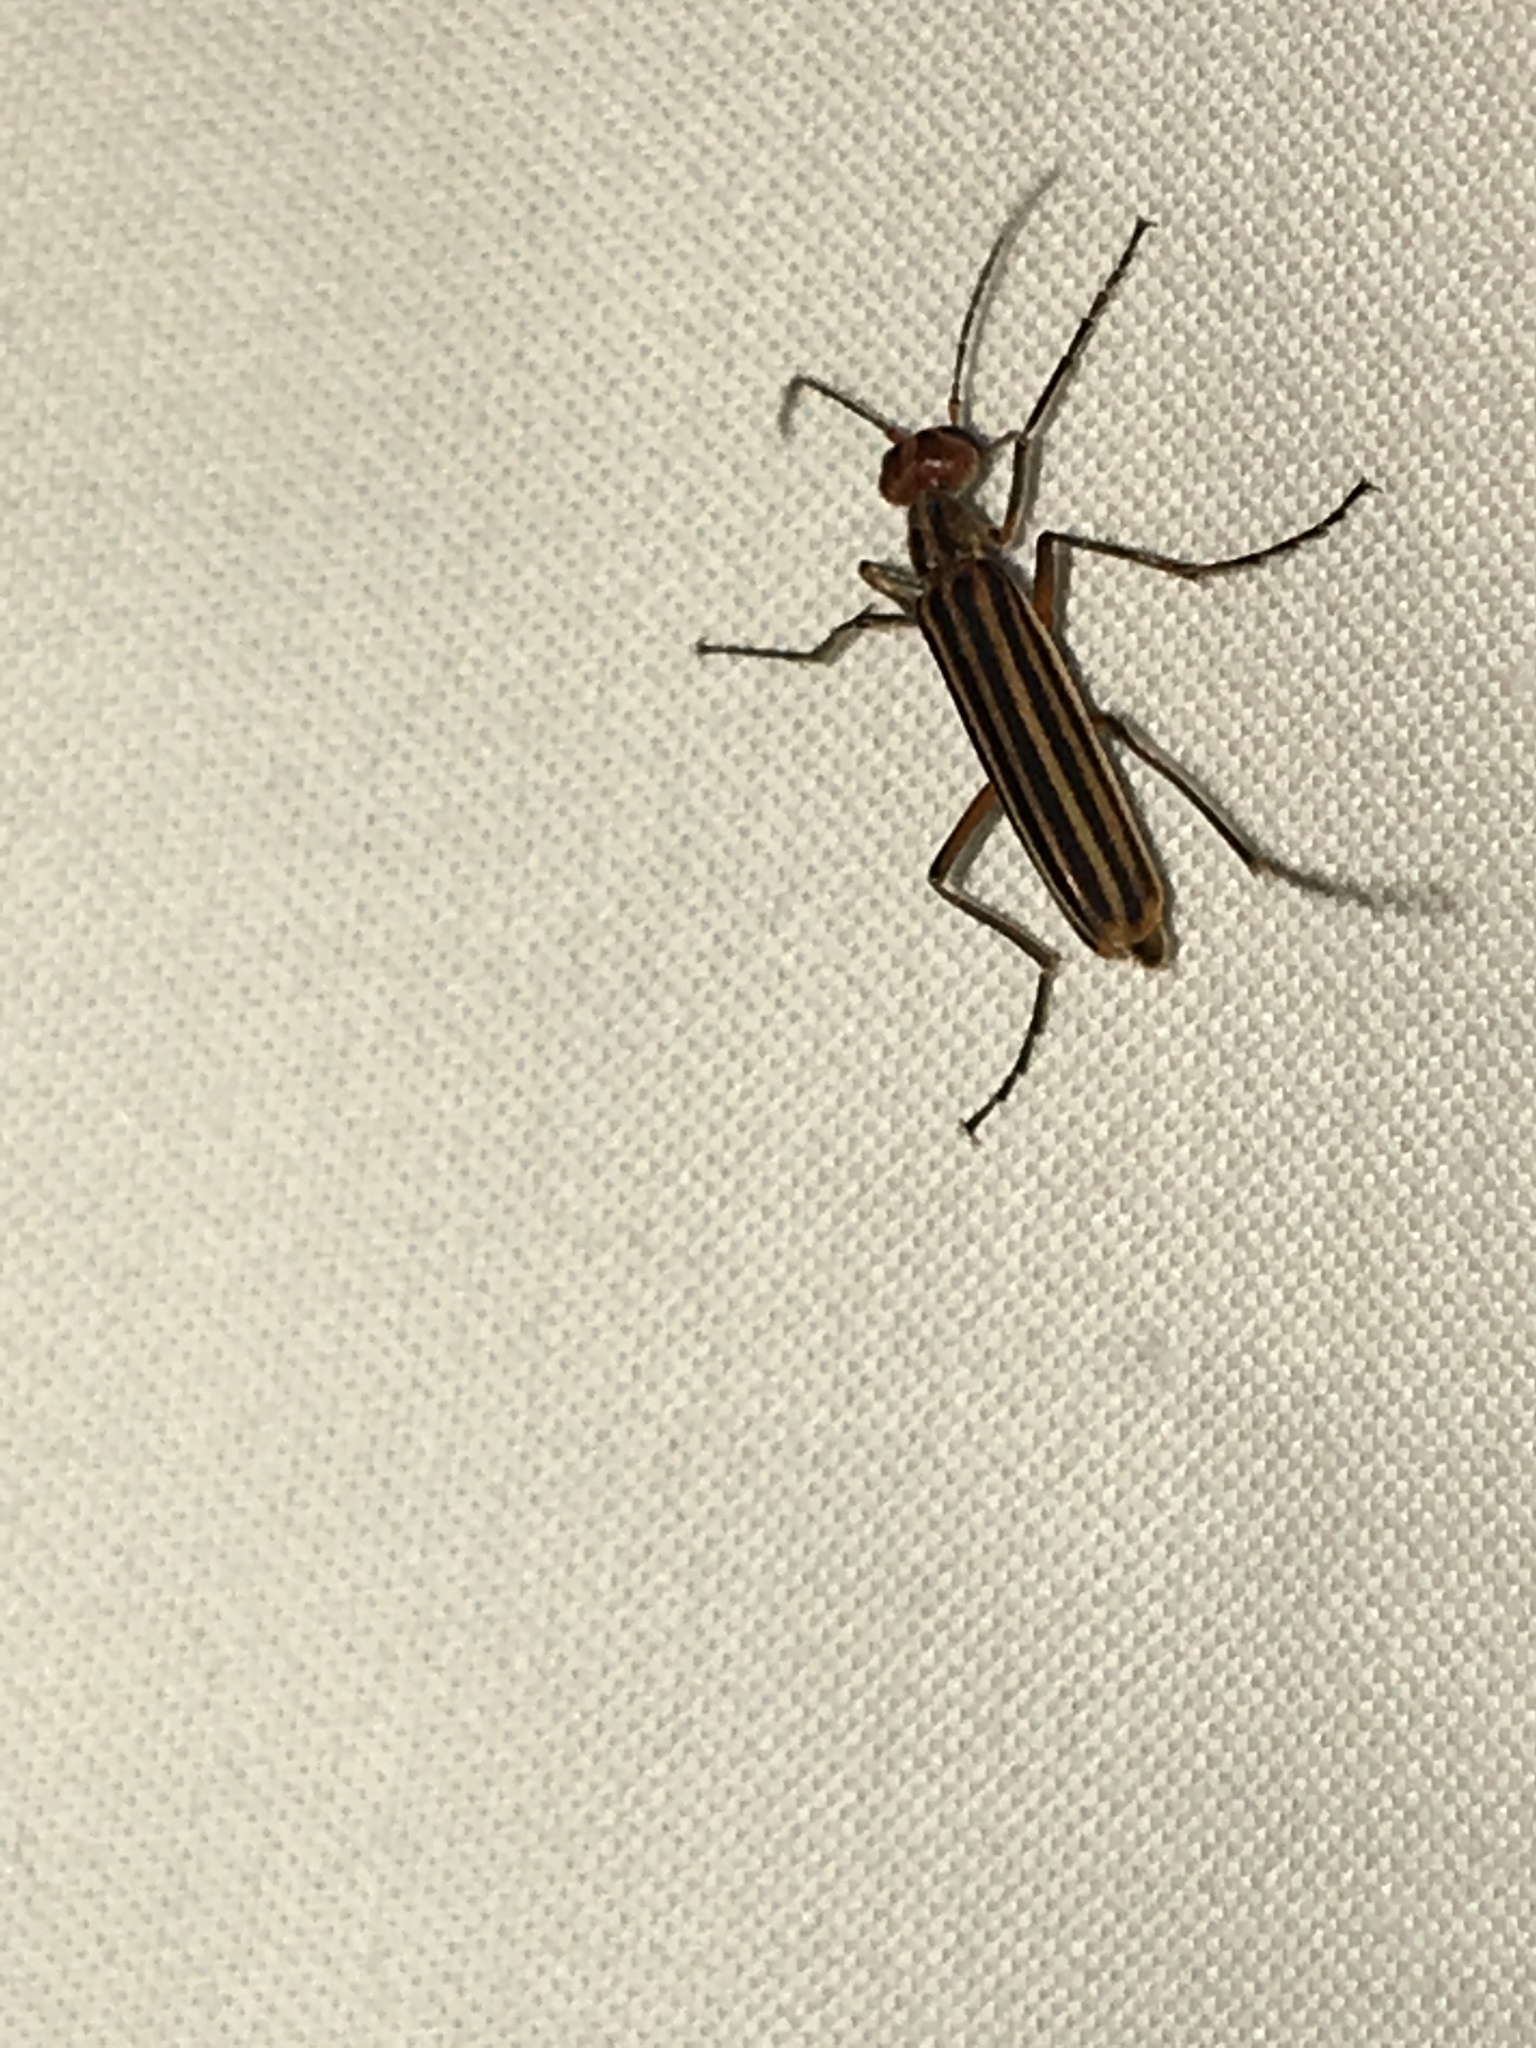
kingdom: Animalia
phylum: Arthropoda
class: Insecta
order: Coleoptera
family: Meloidae
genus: Epicauta
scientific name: Epicauta vittata
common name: Old-fashioned potato beetle
